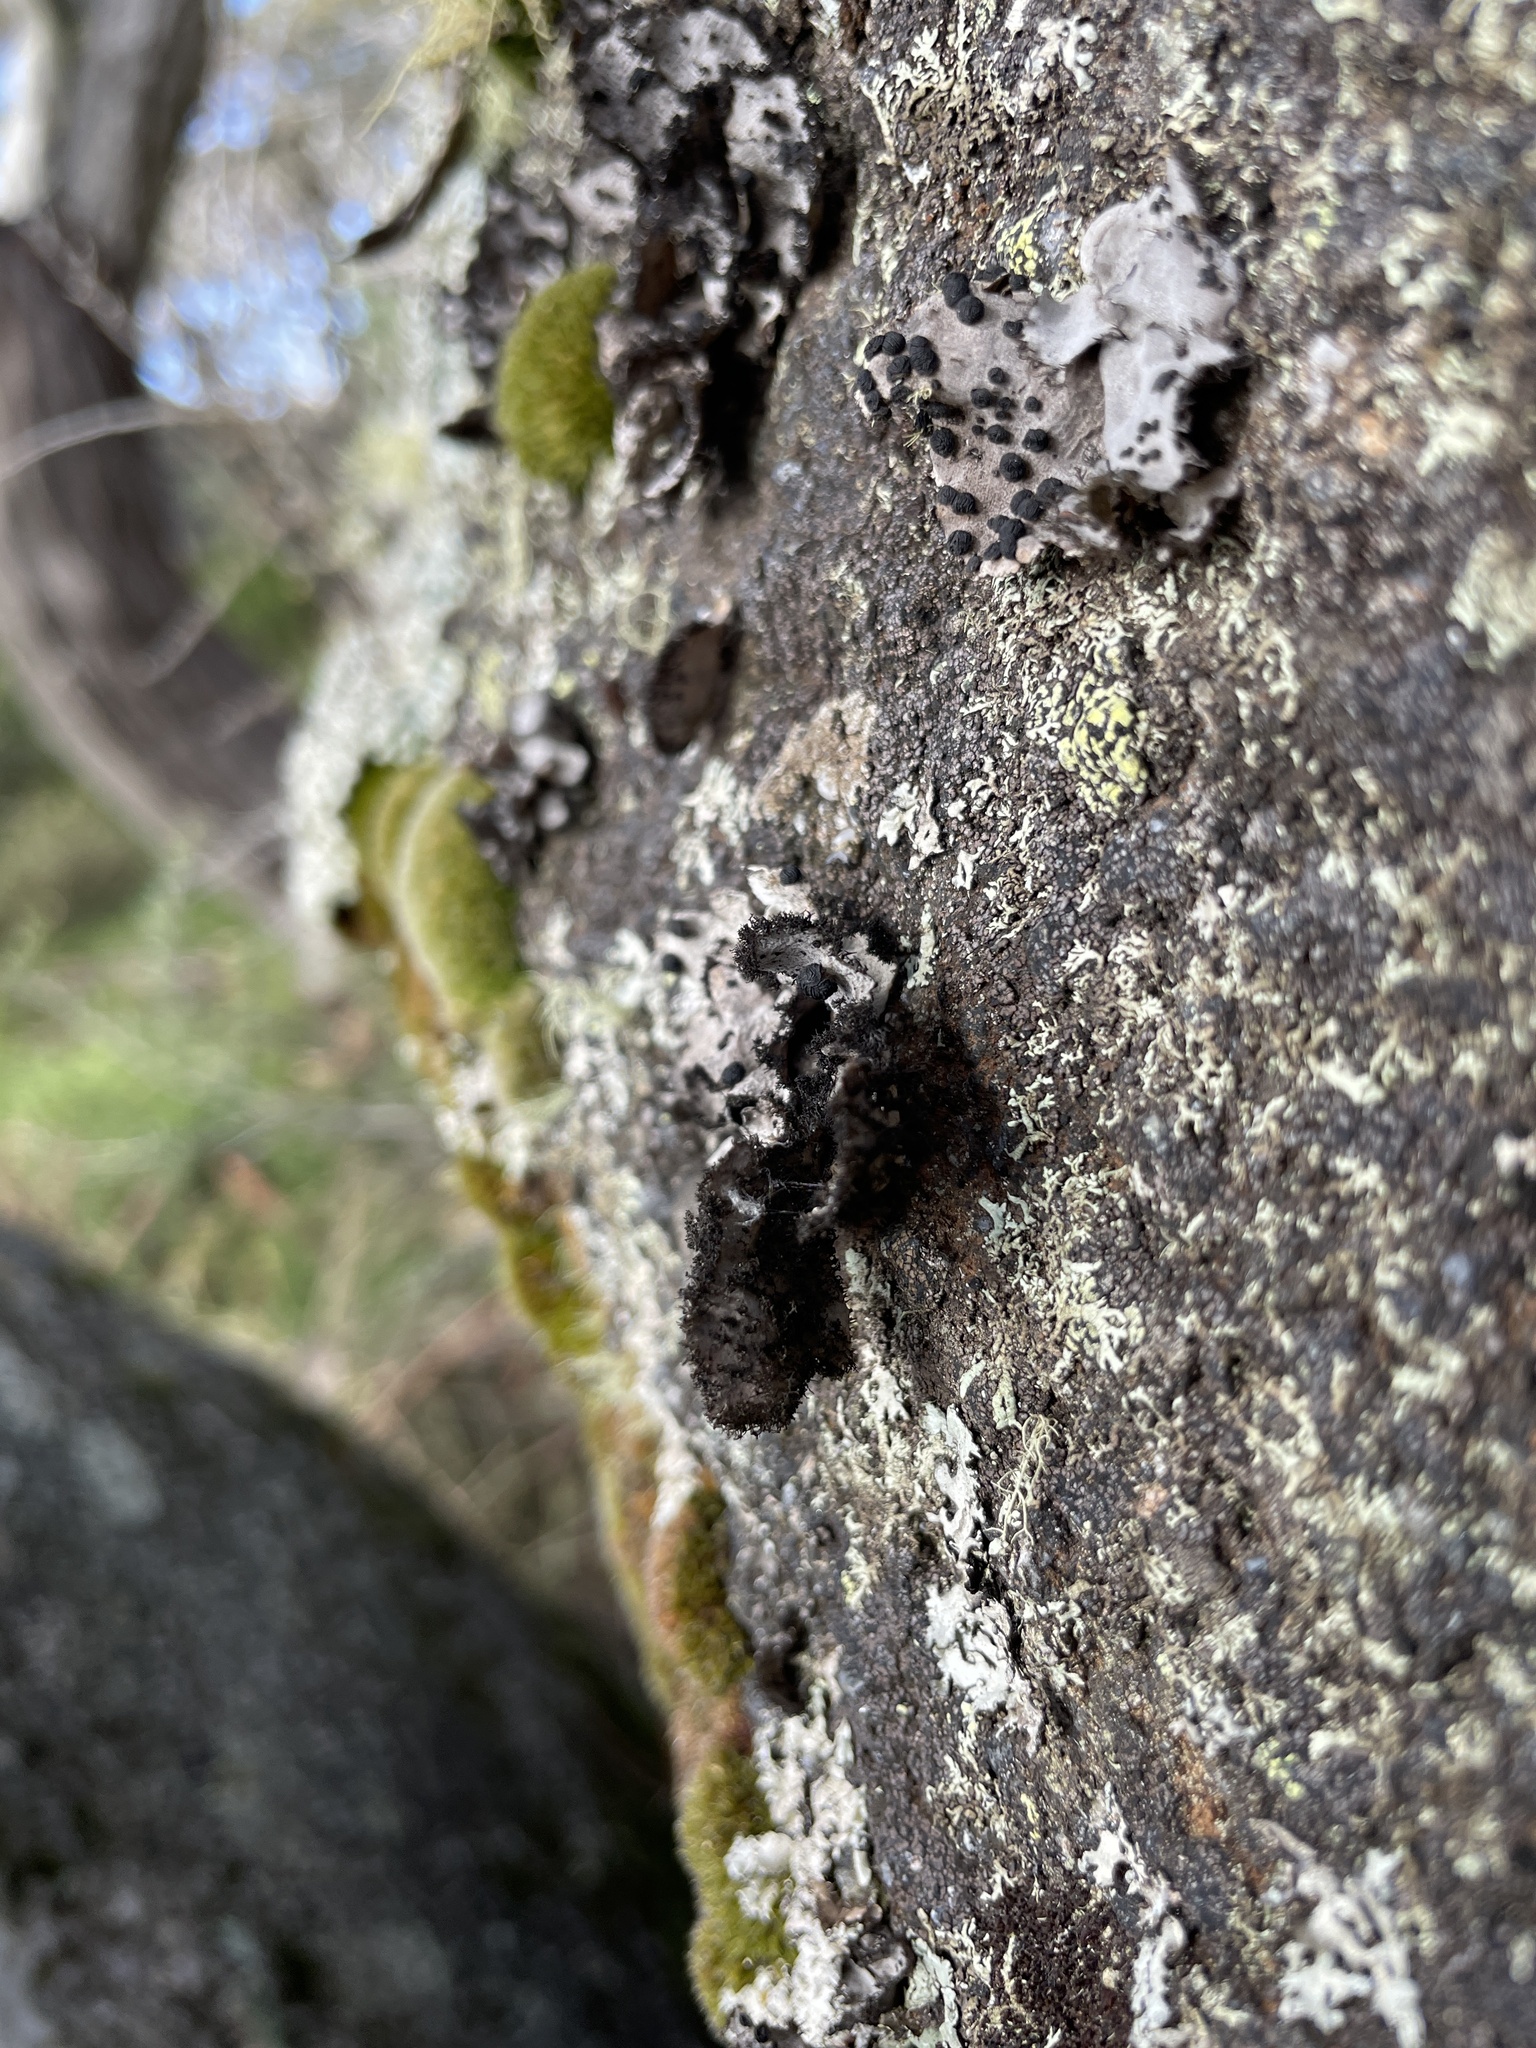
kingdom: Fungi
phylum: Ascomycota
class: Lecanoromycetes
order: Umbilicariales
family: Umbilicariaceae
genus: Umbilicaria
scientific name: Umbilicaria cylindrica
